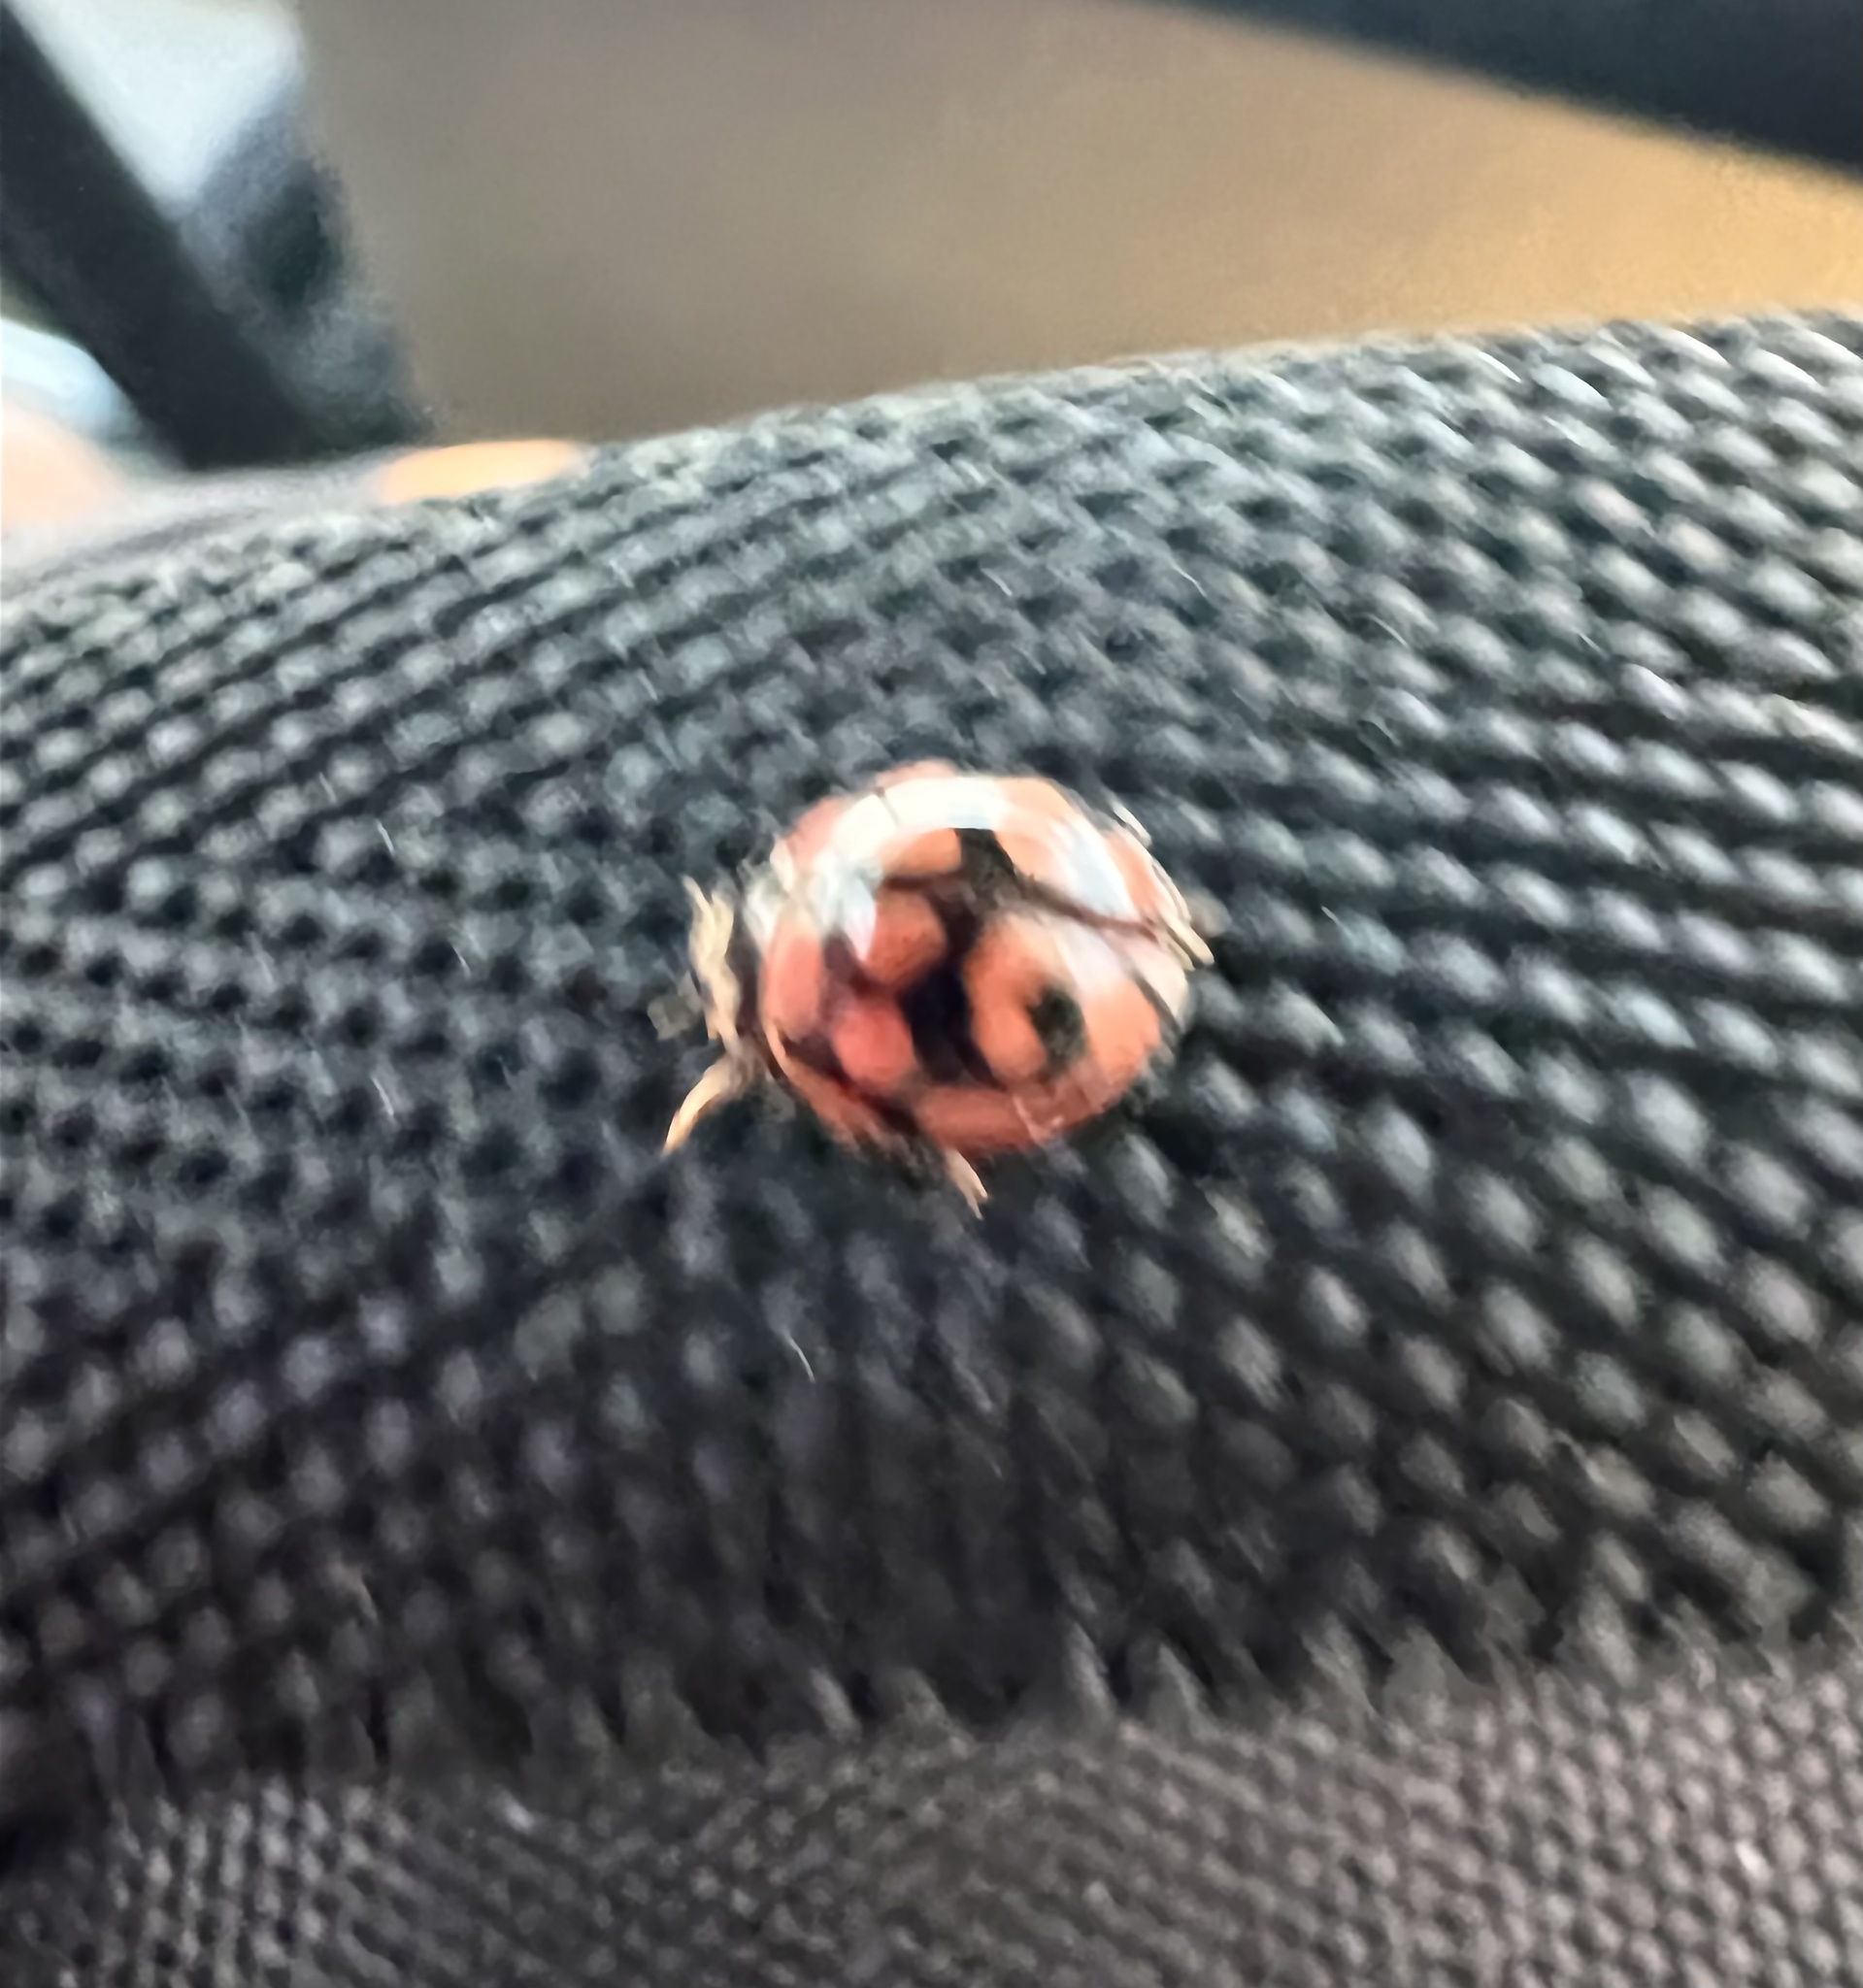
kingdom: Animalia
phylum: Arthropoda
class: Insecta
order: Coleoptera
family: Coccinellidae
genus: Cheilomenes
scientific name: Cheilomenes lunata
